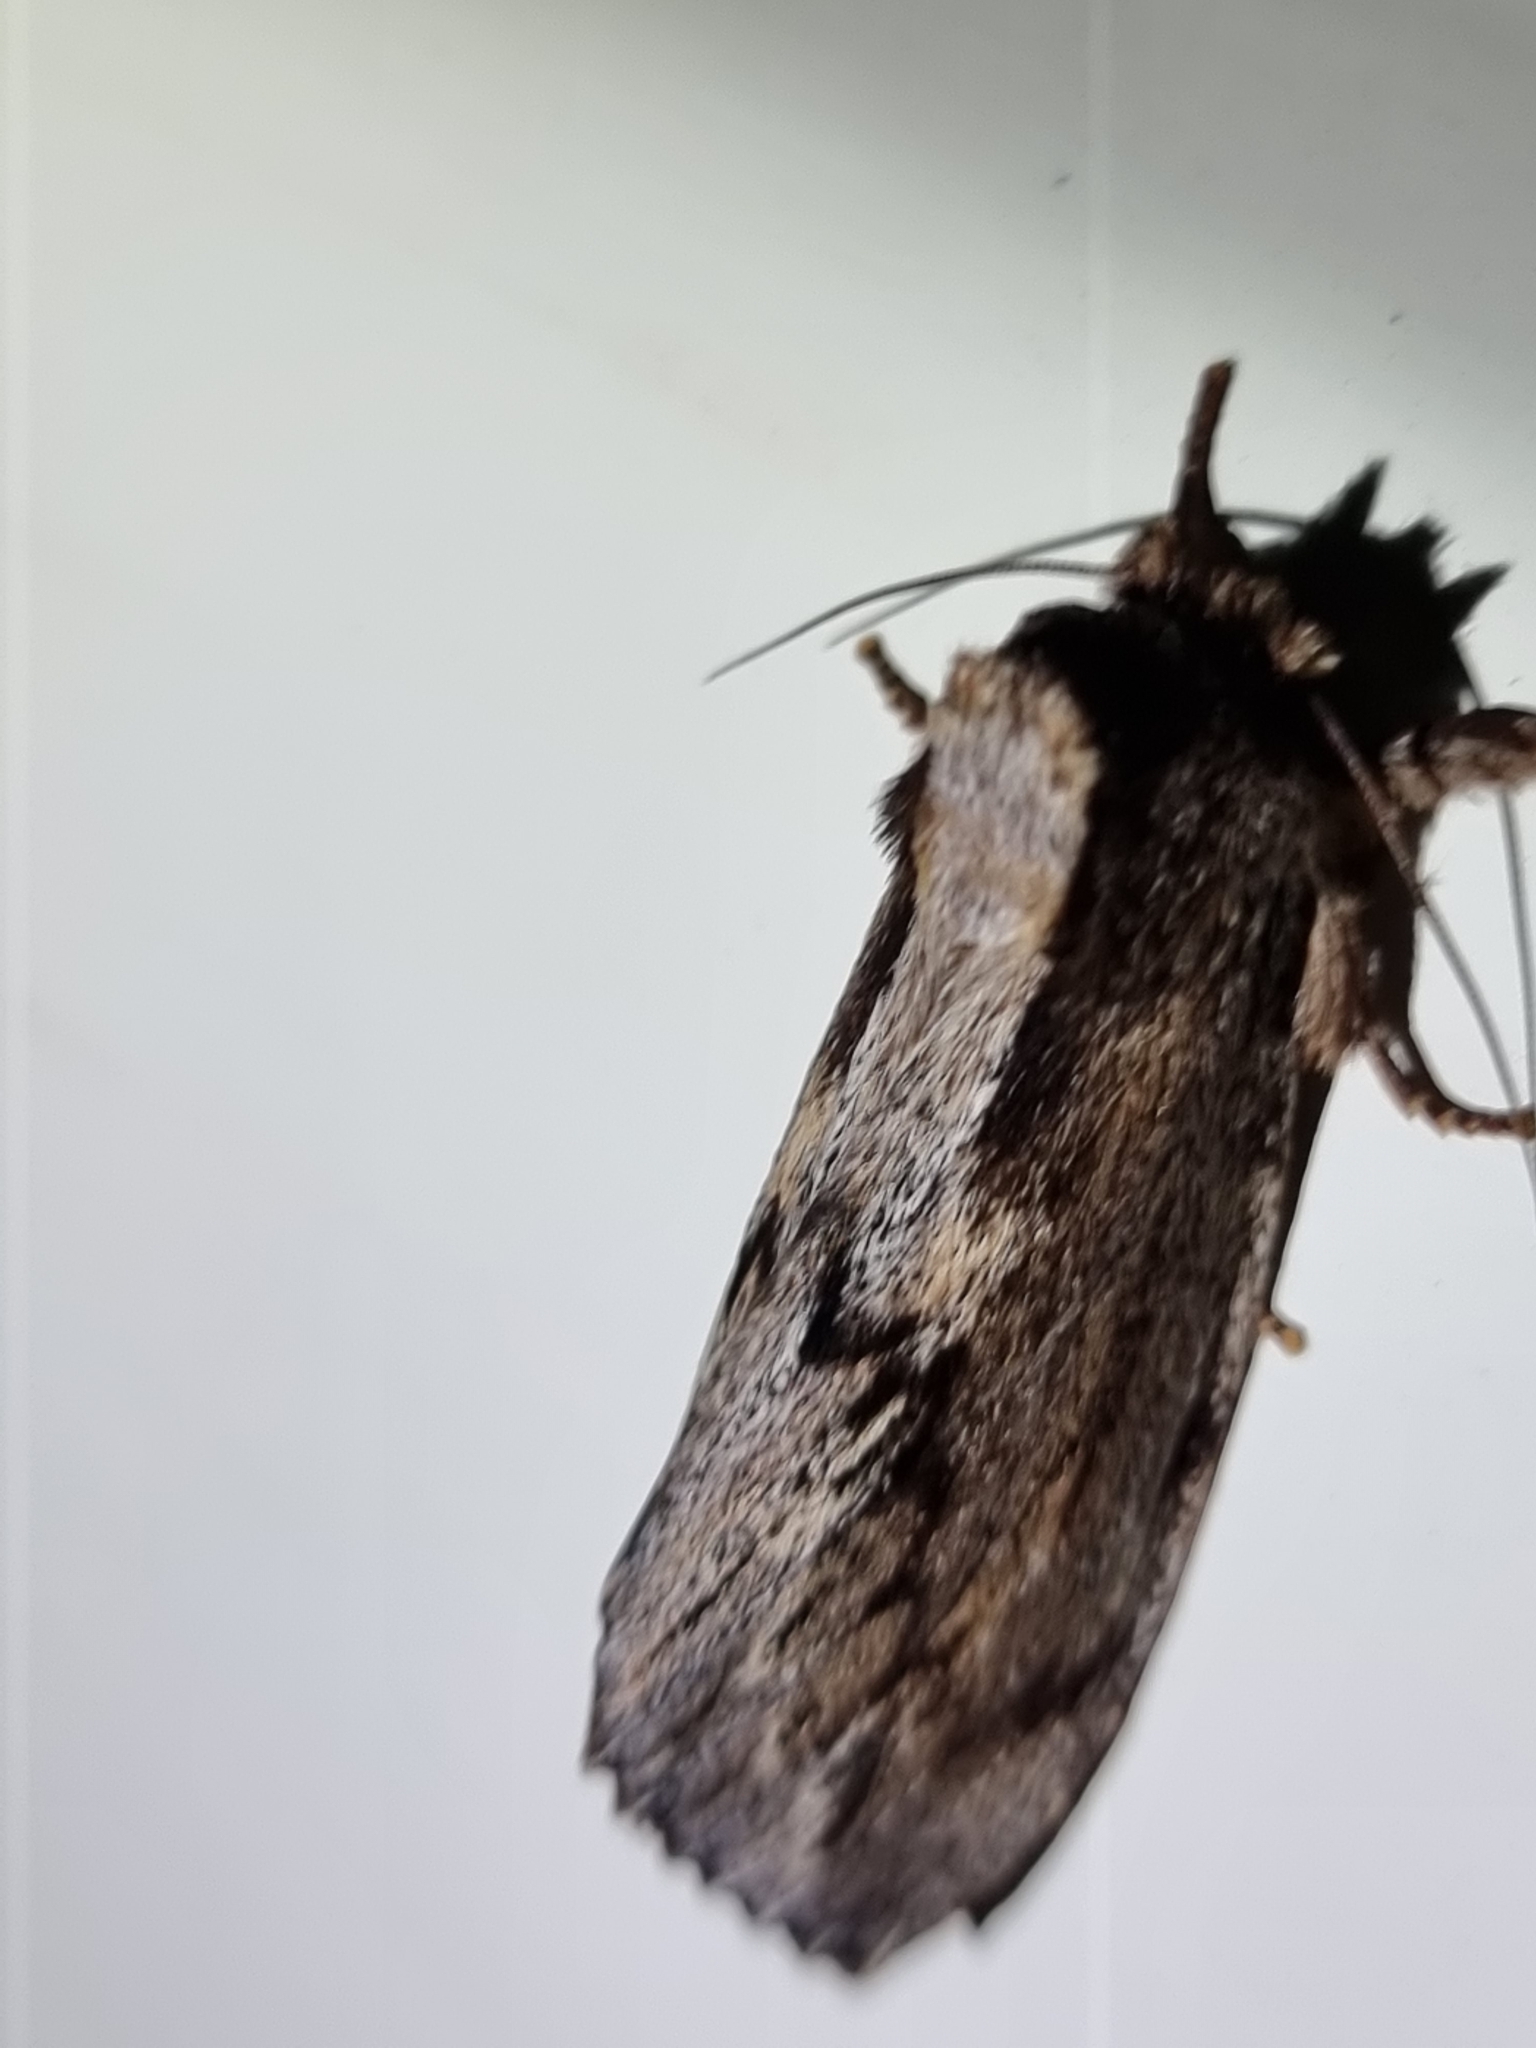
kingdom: Animalia
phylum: Arthropoda
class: Insecta
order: Lepidoptera
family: Notodontidae
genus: Hylaeora
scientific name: Hylaeora capucina
